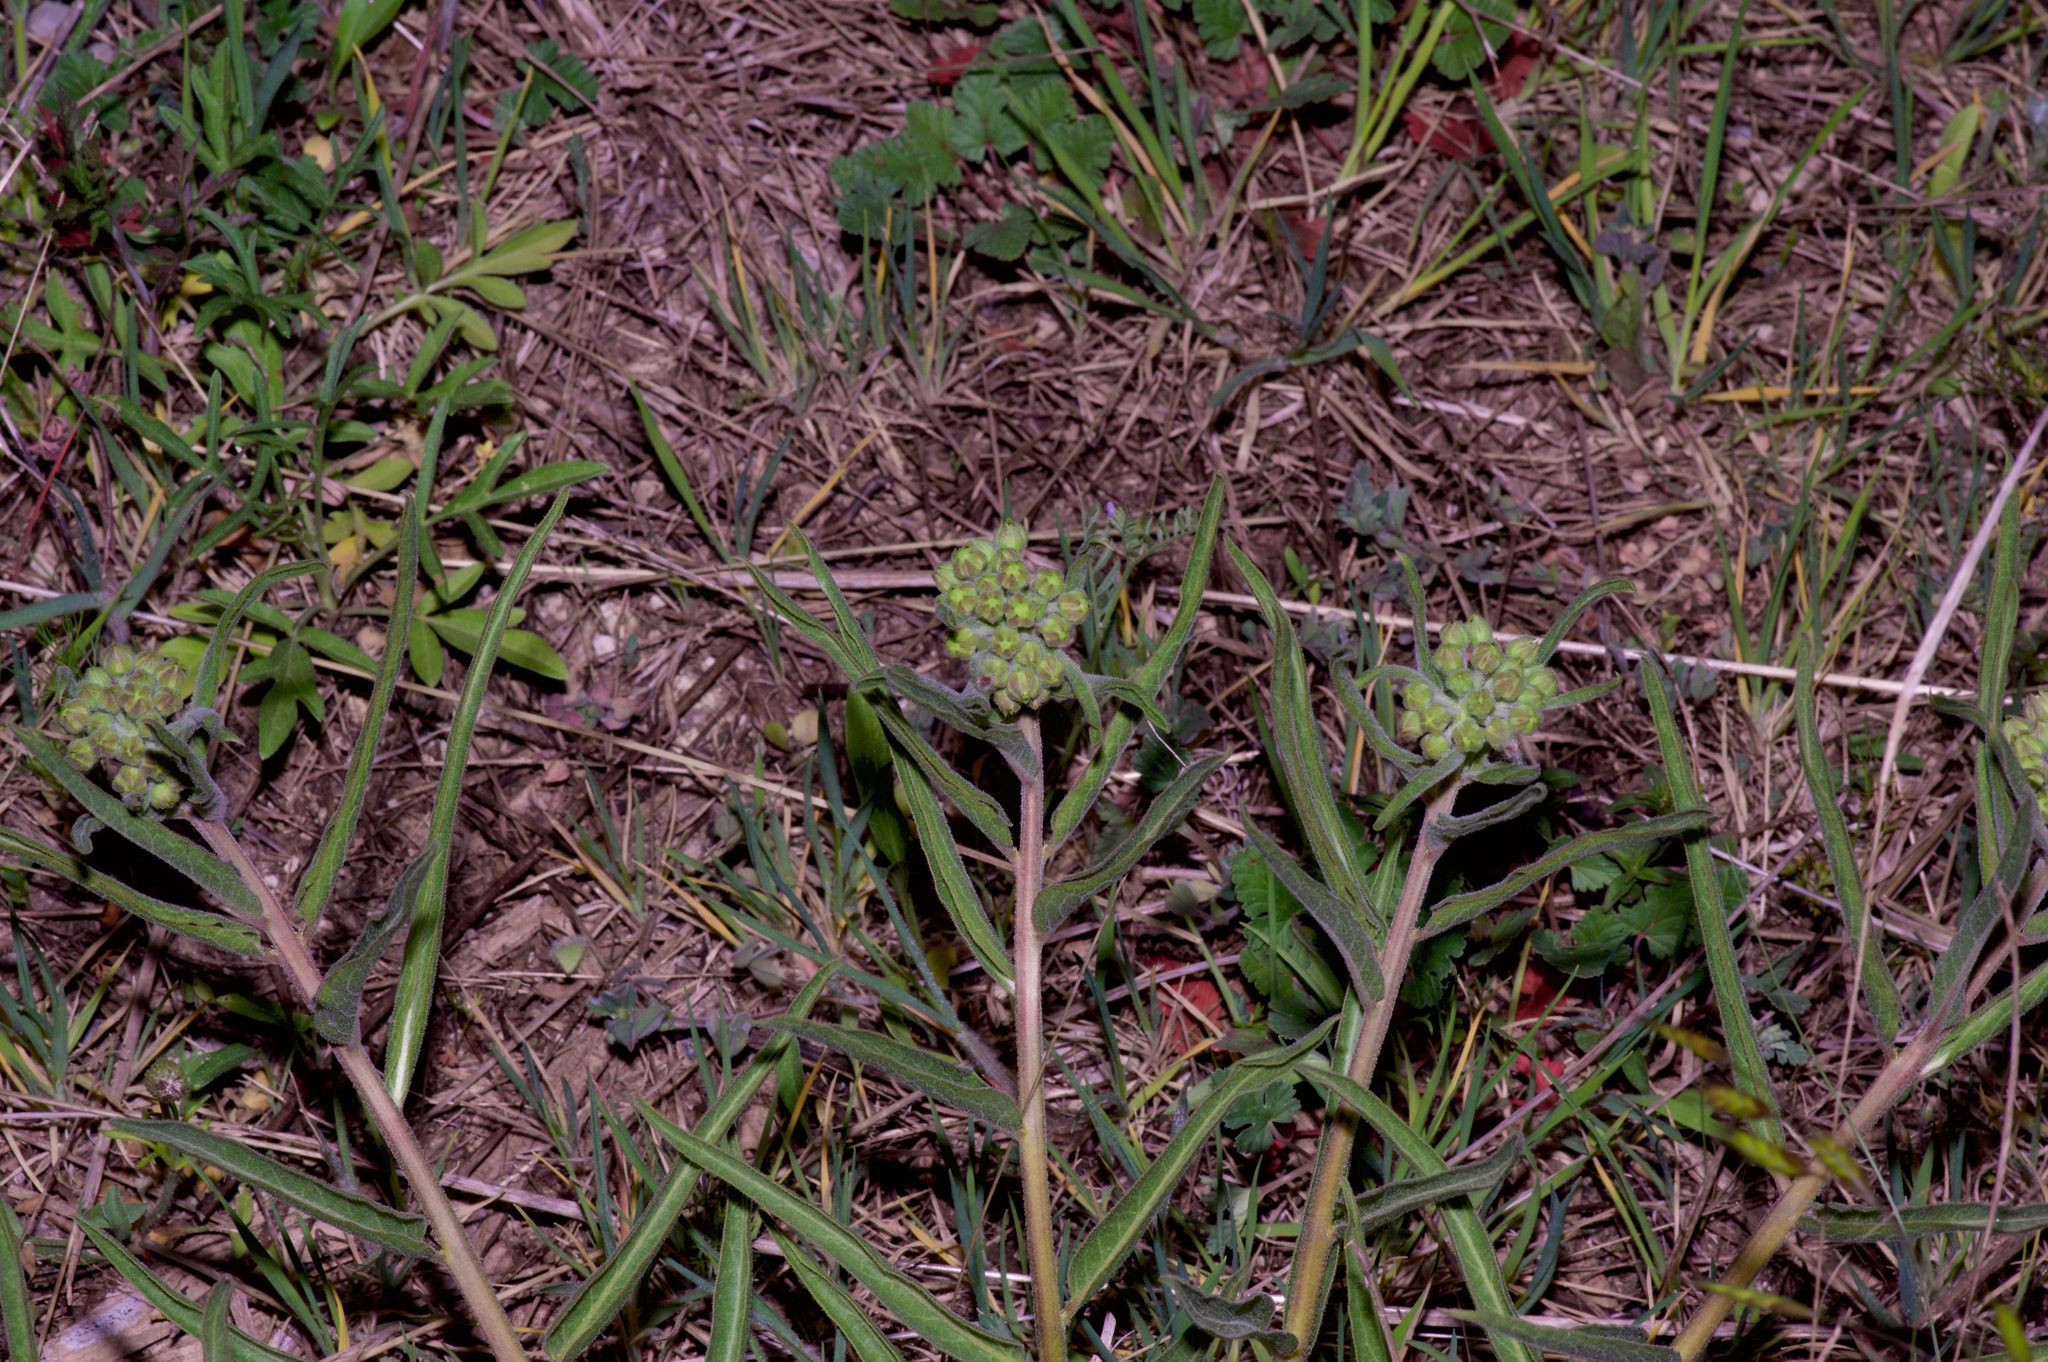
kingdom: Plantae
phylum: Tracheophyta
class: Magnoliopsida
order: Gentianales
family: Apocynaceae
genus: Asclepias
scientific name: Asclepias asperula
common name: Antelope horns
